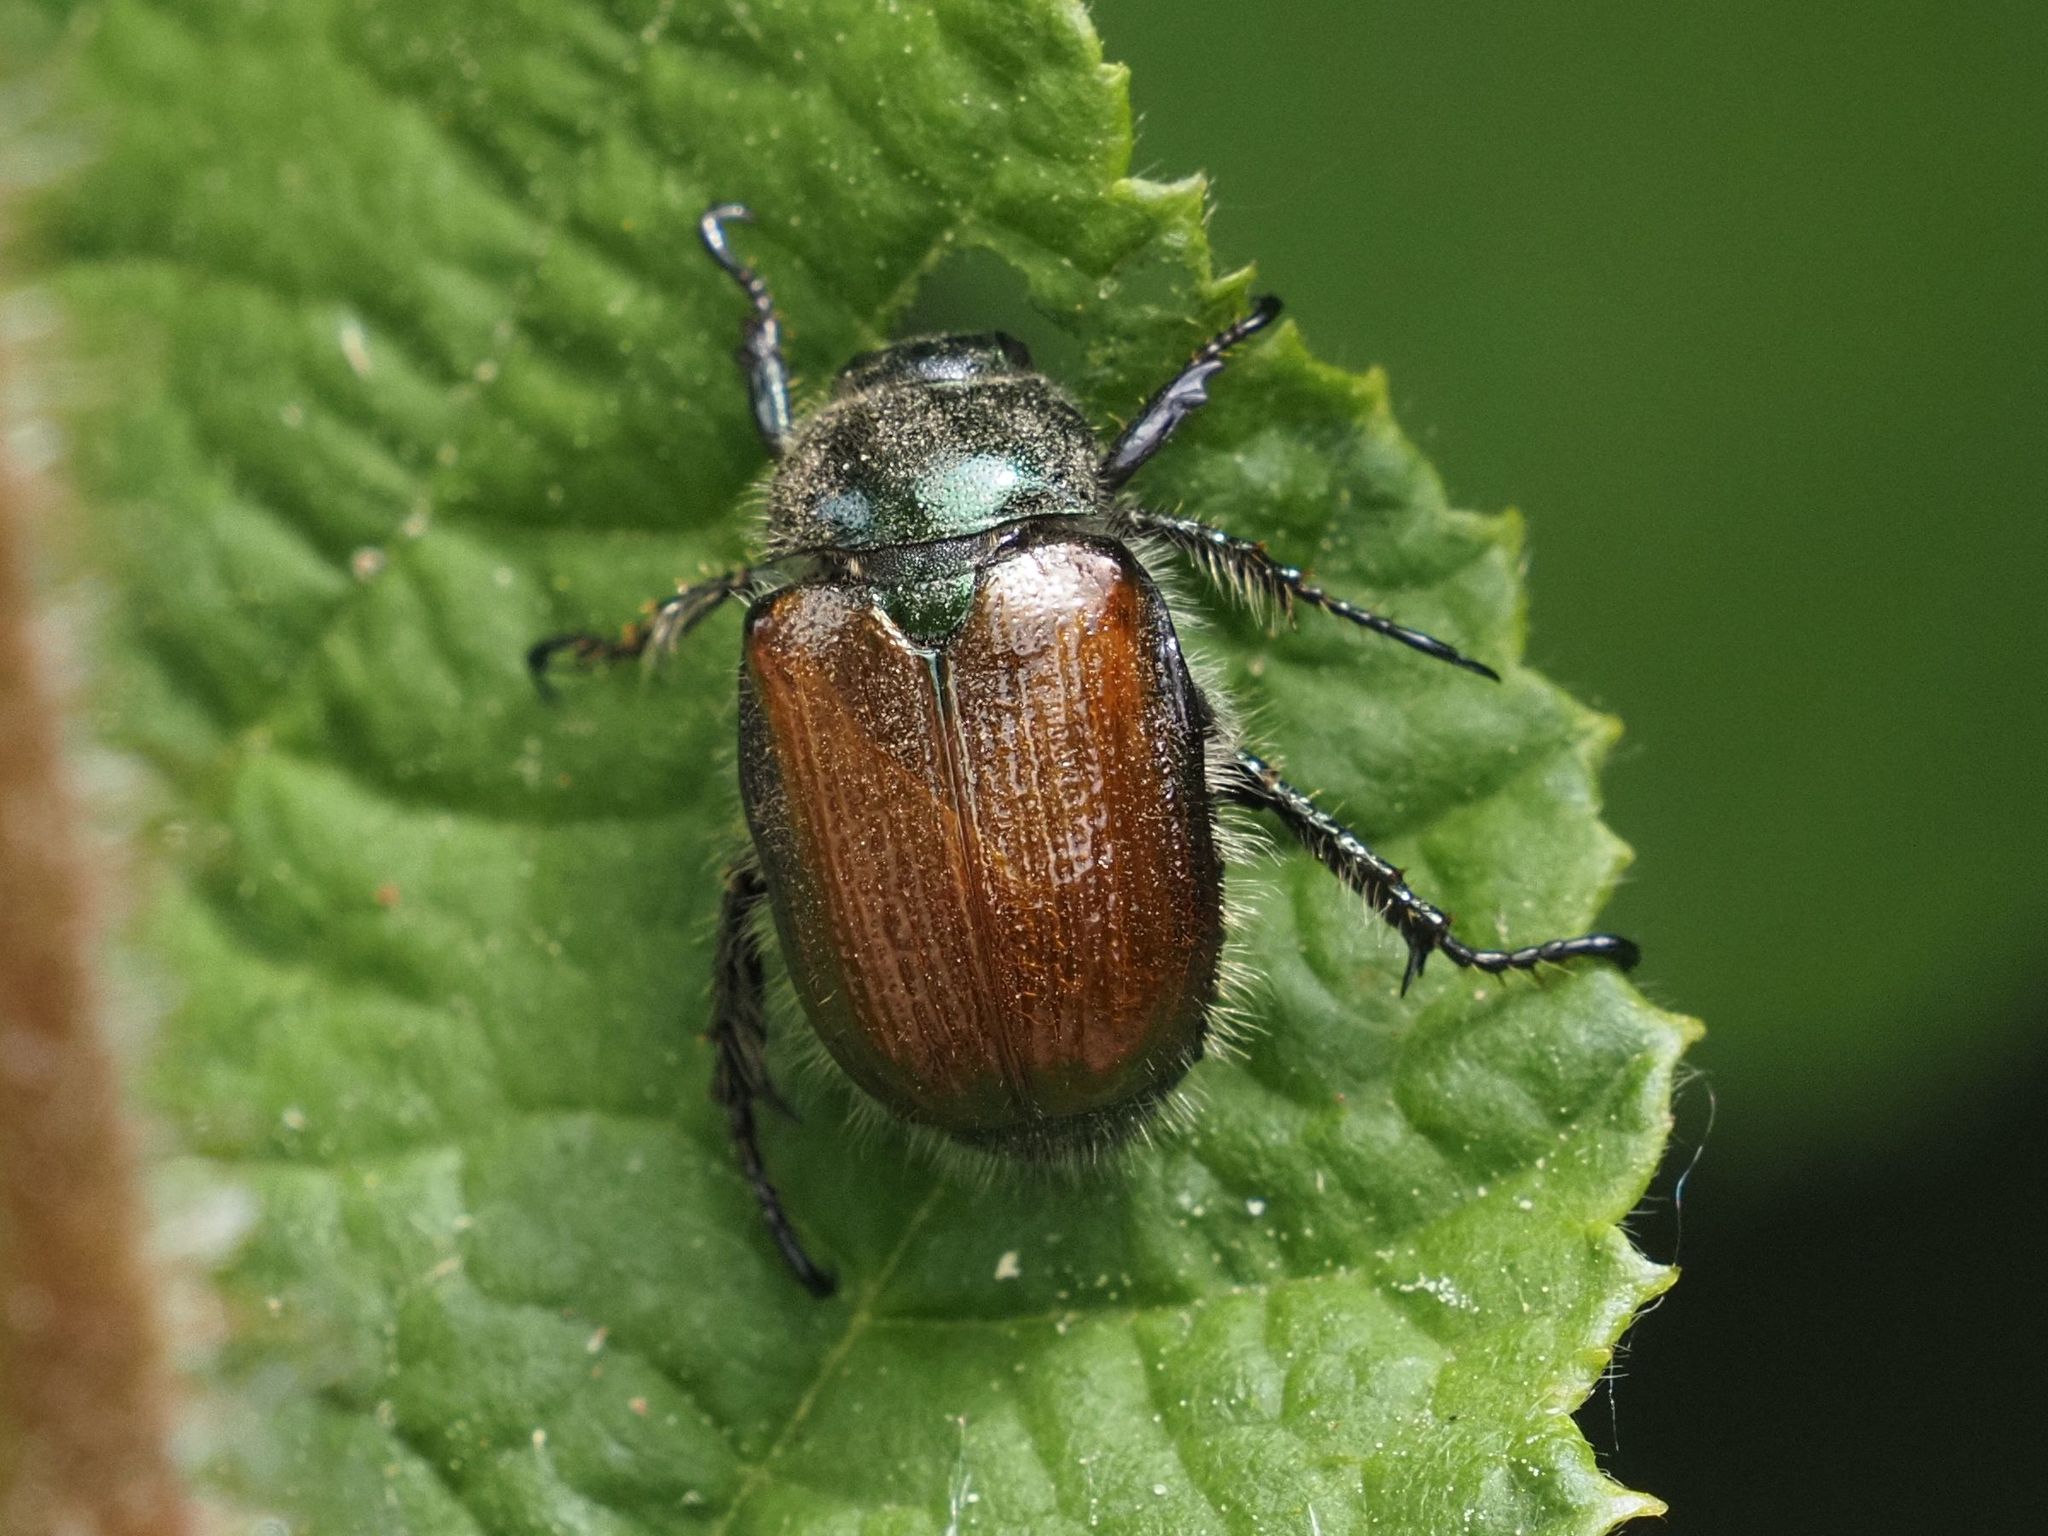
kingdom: Animalia
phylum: Arthropoda
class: Insecta
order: Coleoptera
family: Scarabaeidae
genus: Phyllopertha
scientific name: Phyllopertha horticola
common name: Garden chafer
